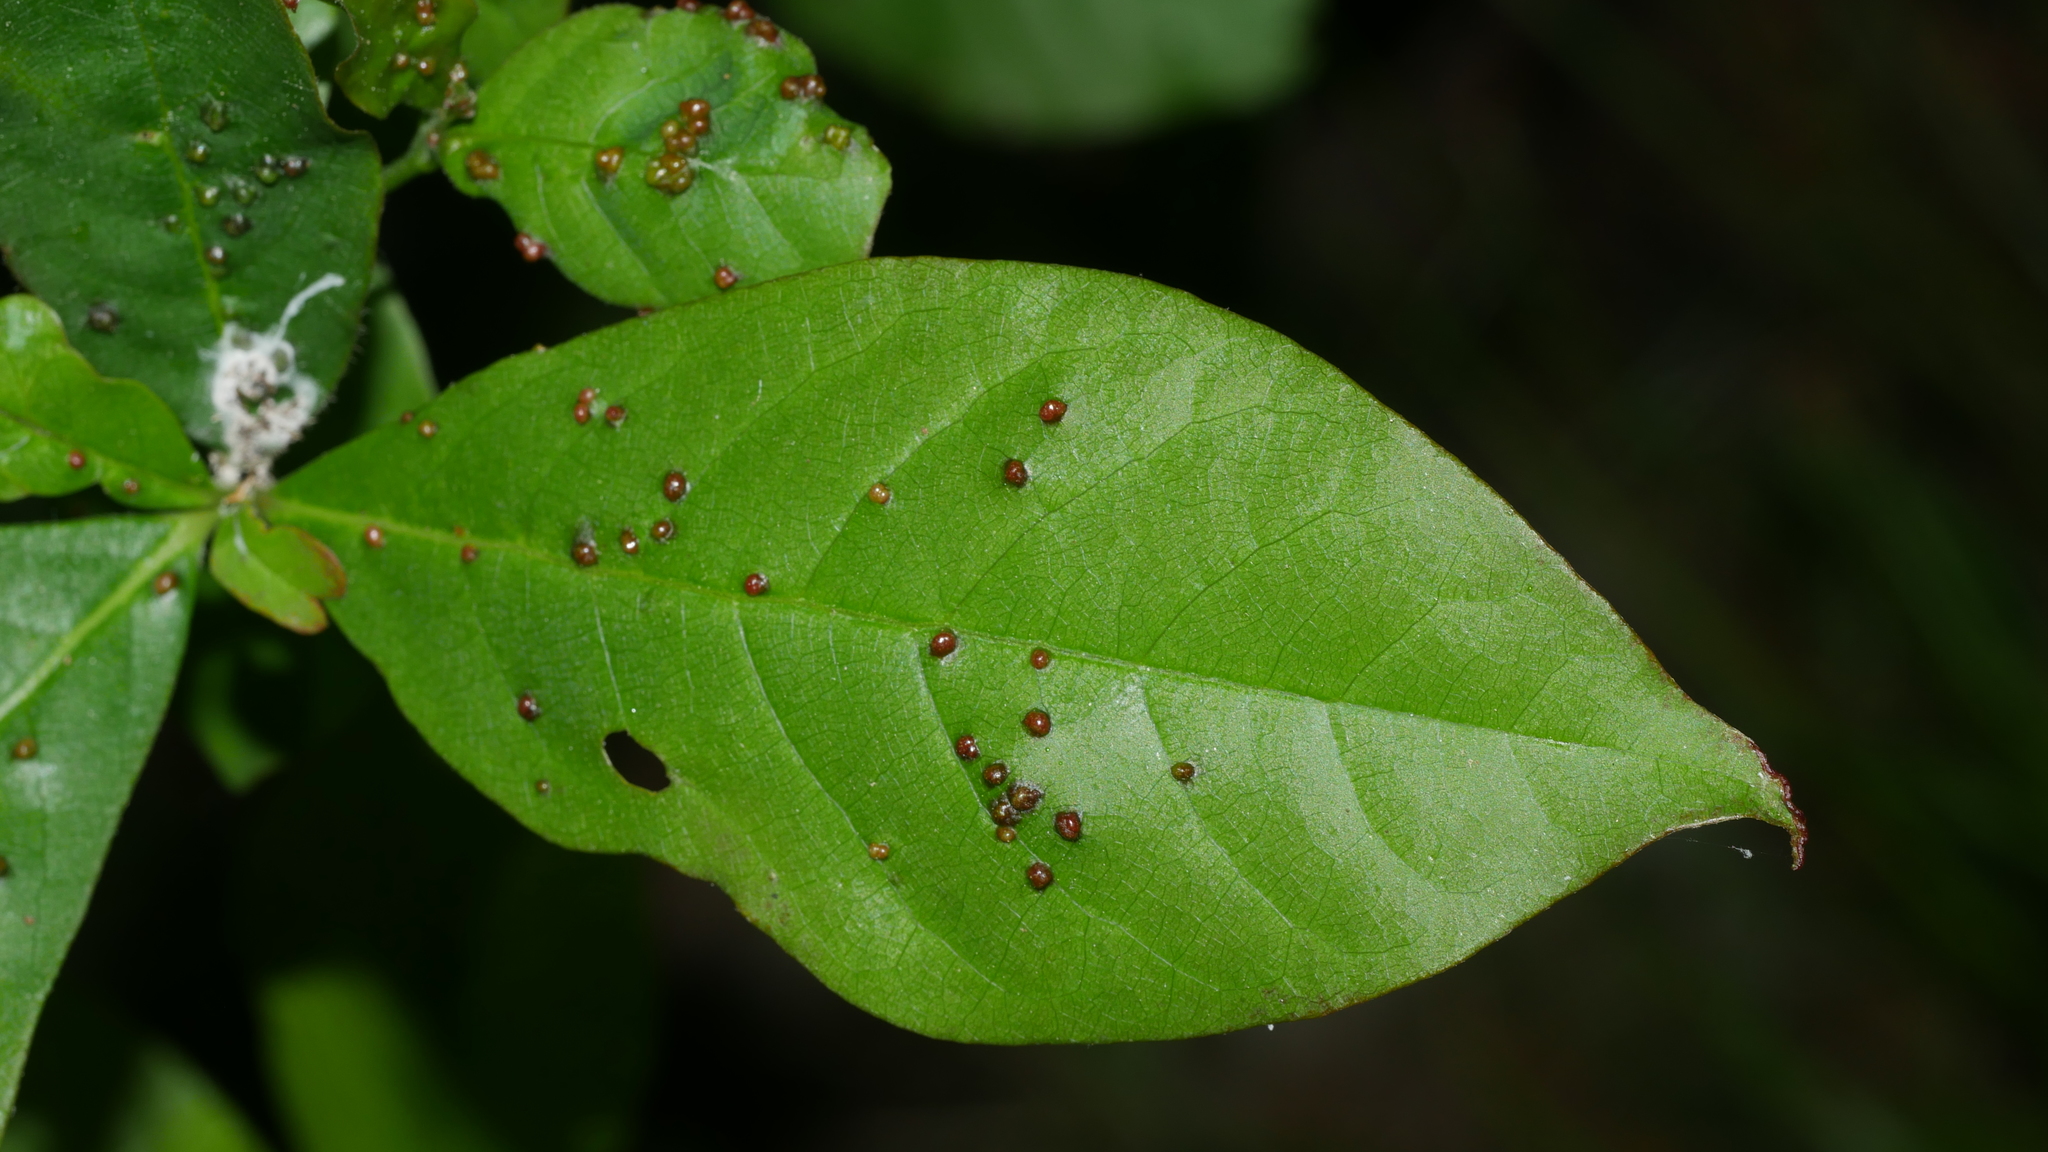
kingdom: Animalia
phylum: Arthropoda
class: Arachnida
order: Trombidiformes
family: Eriophyidae
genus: Aceria
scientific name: Aceria
